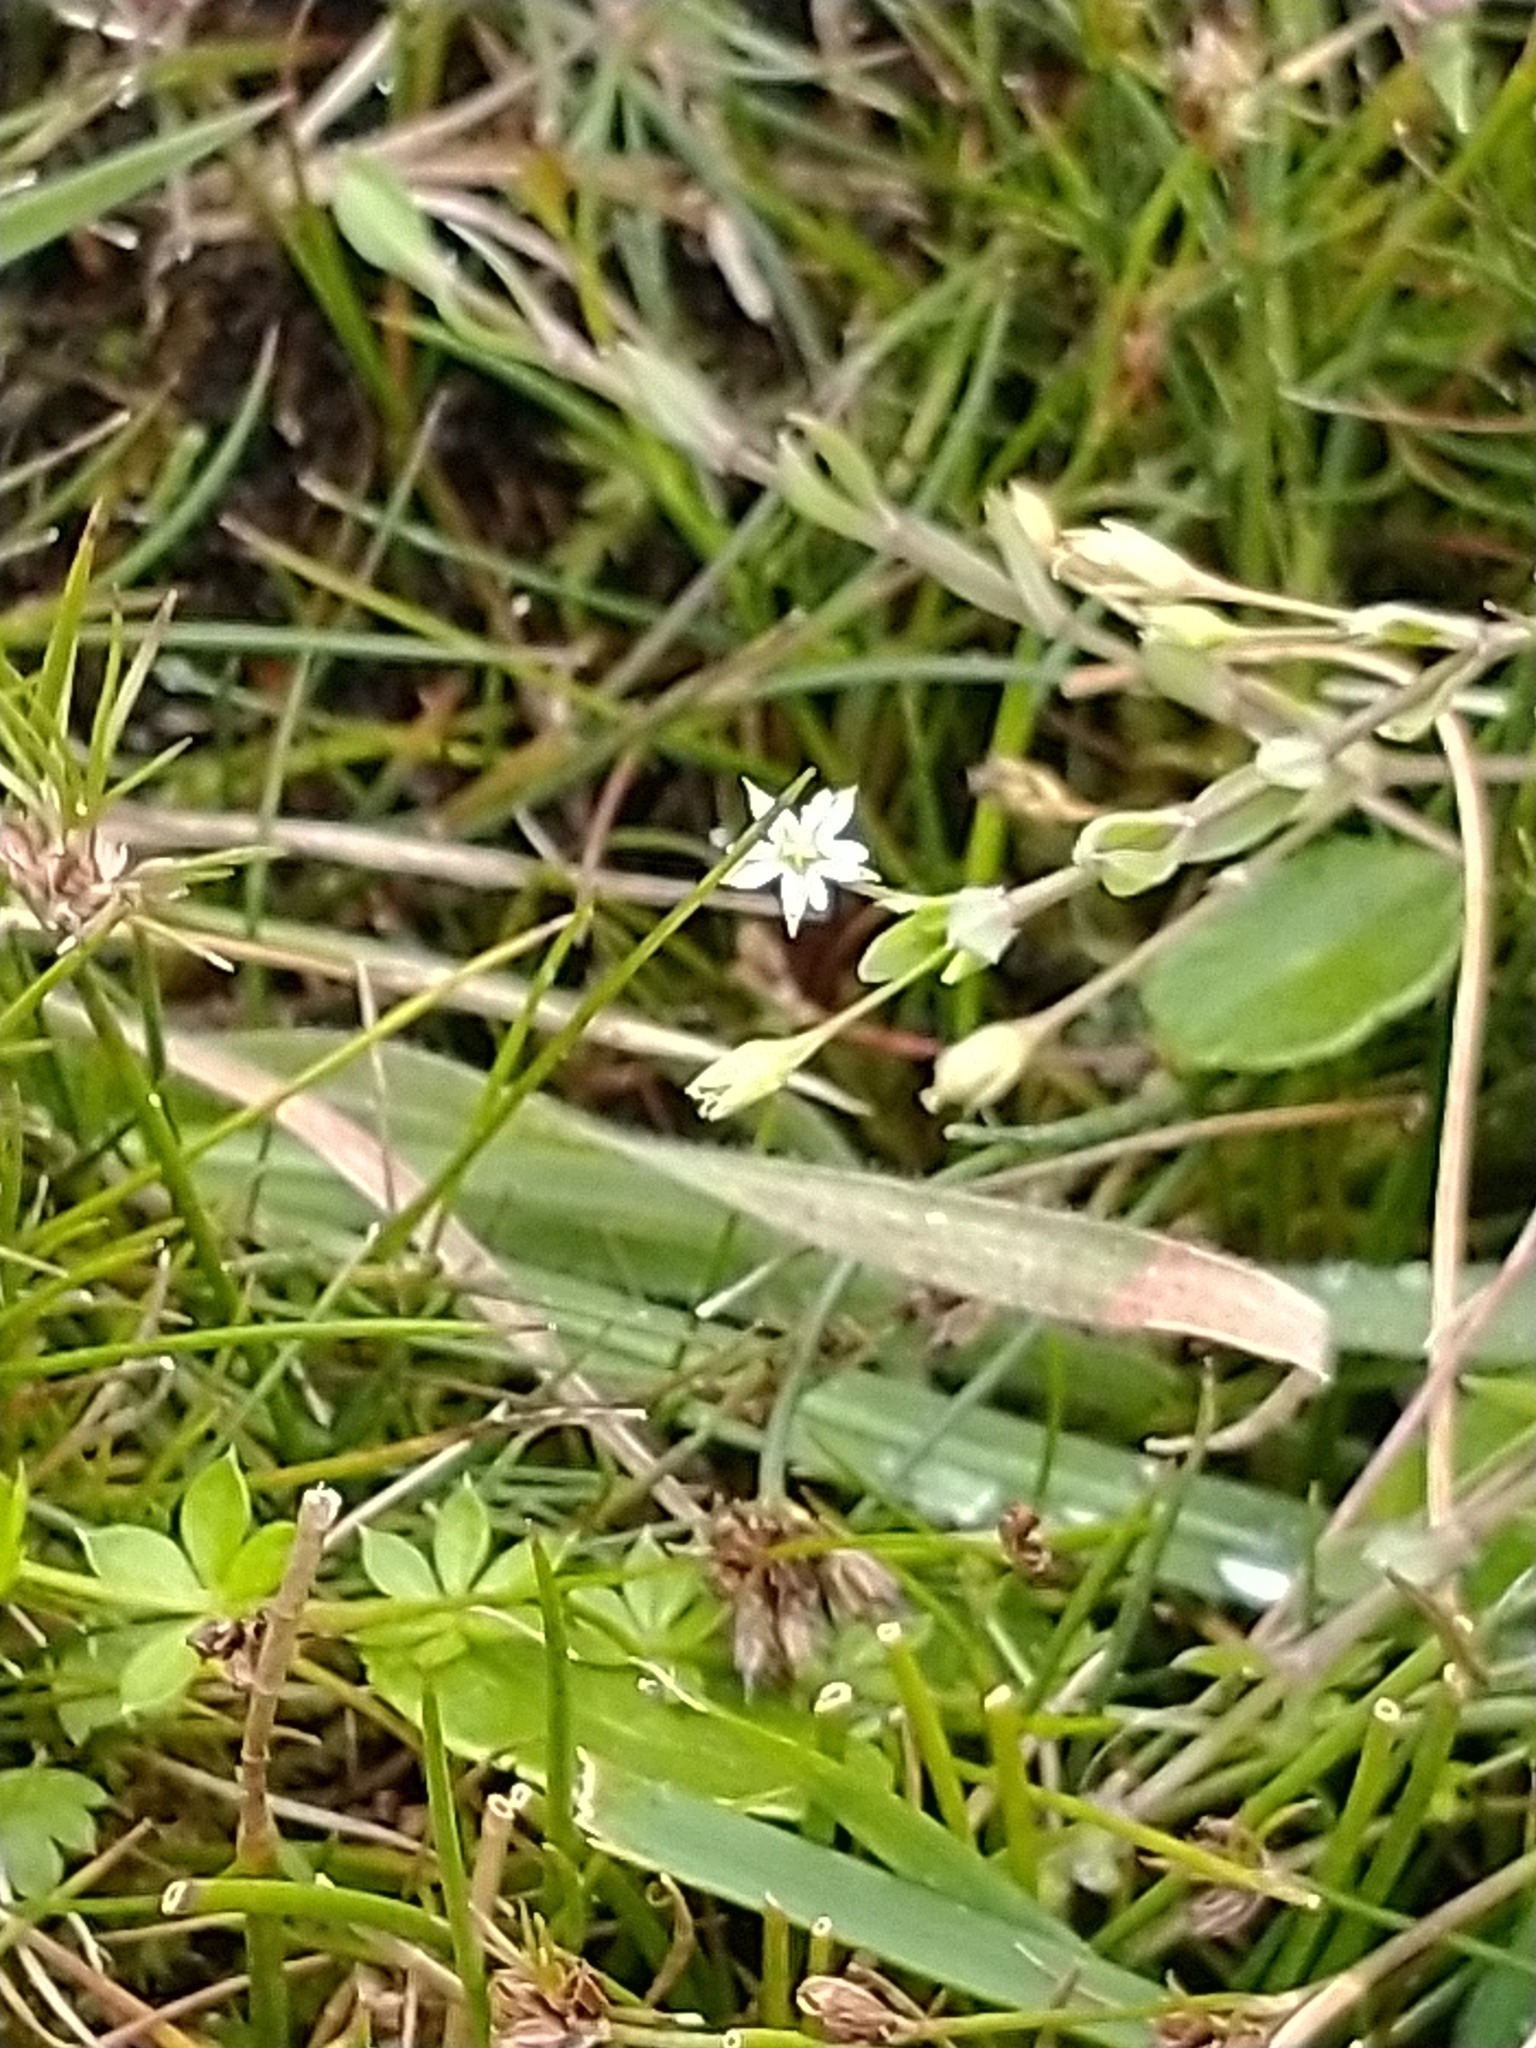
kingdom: Plantae
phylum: Tracheophyta
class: Magnoliopsida
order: Caryophyllales
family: Caryophyllaceae
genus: Stellaria
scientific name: Stellaria alsine
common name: Bog stitchwort
